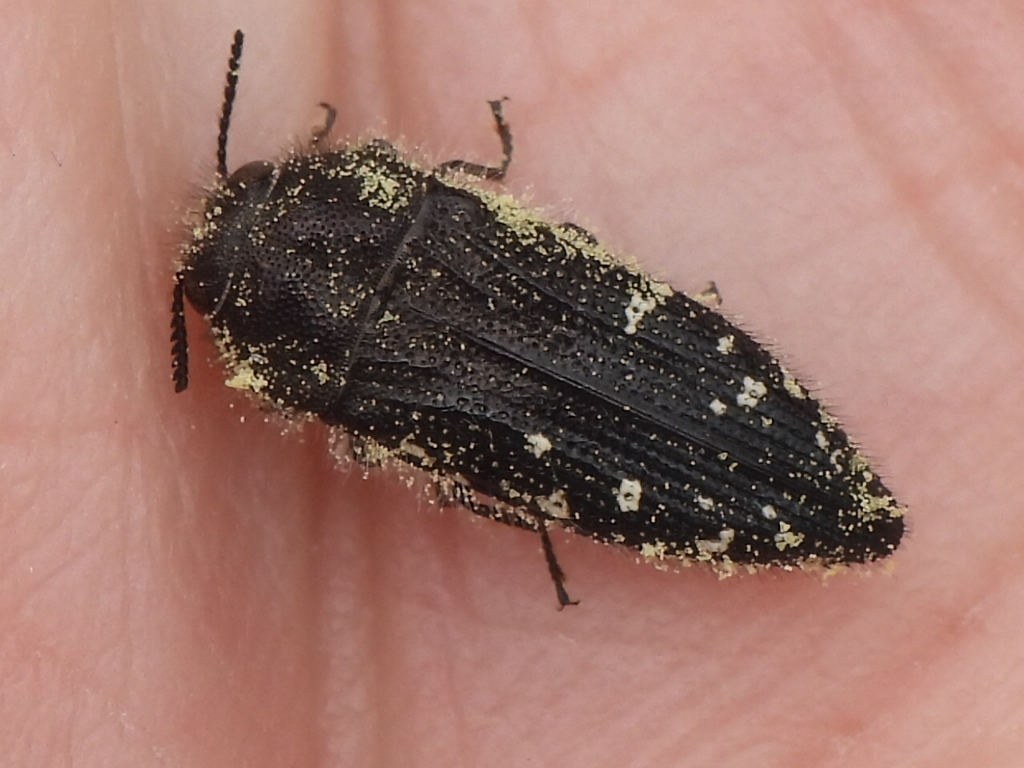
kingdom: Animalia
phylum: Arthropoda
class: Insecta
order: Coleoptera
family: Buprestidae
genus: Acmaeodera
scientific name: Acmaeodera ornatoides
